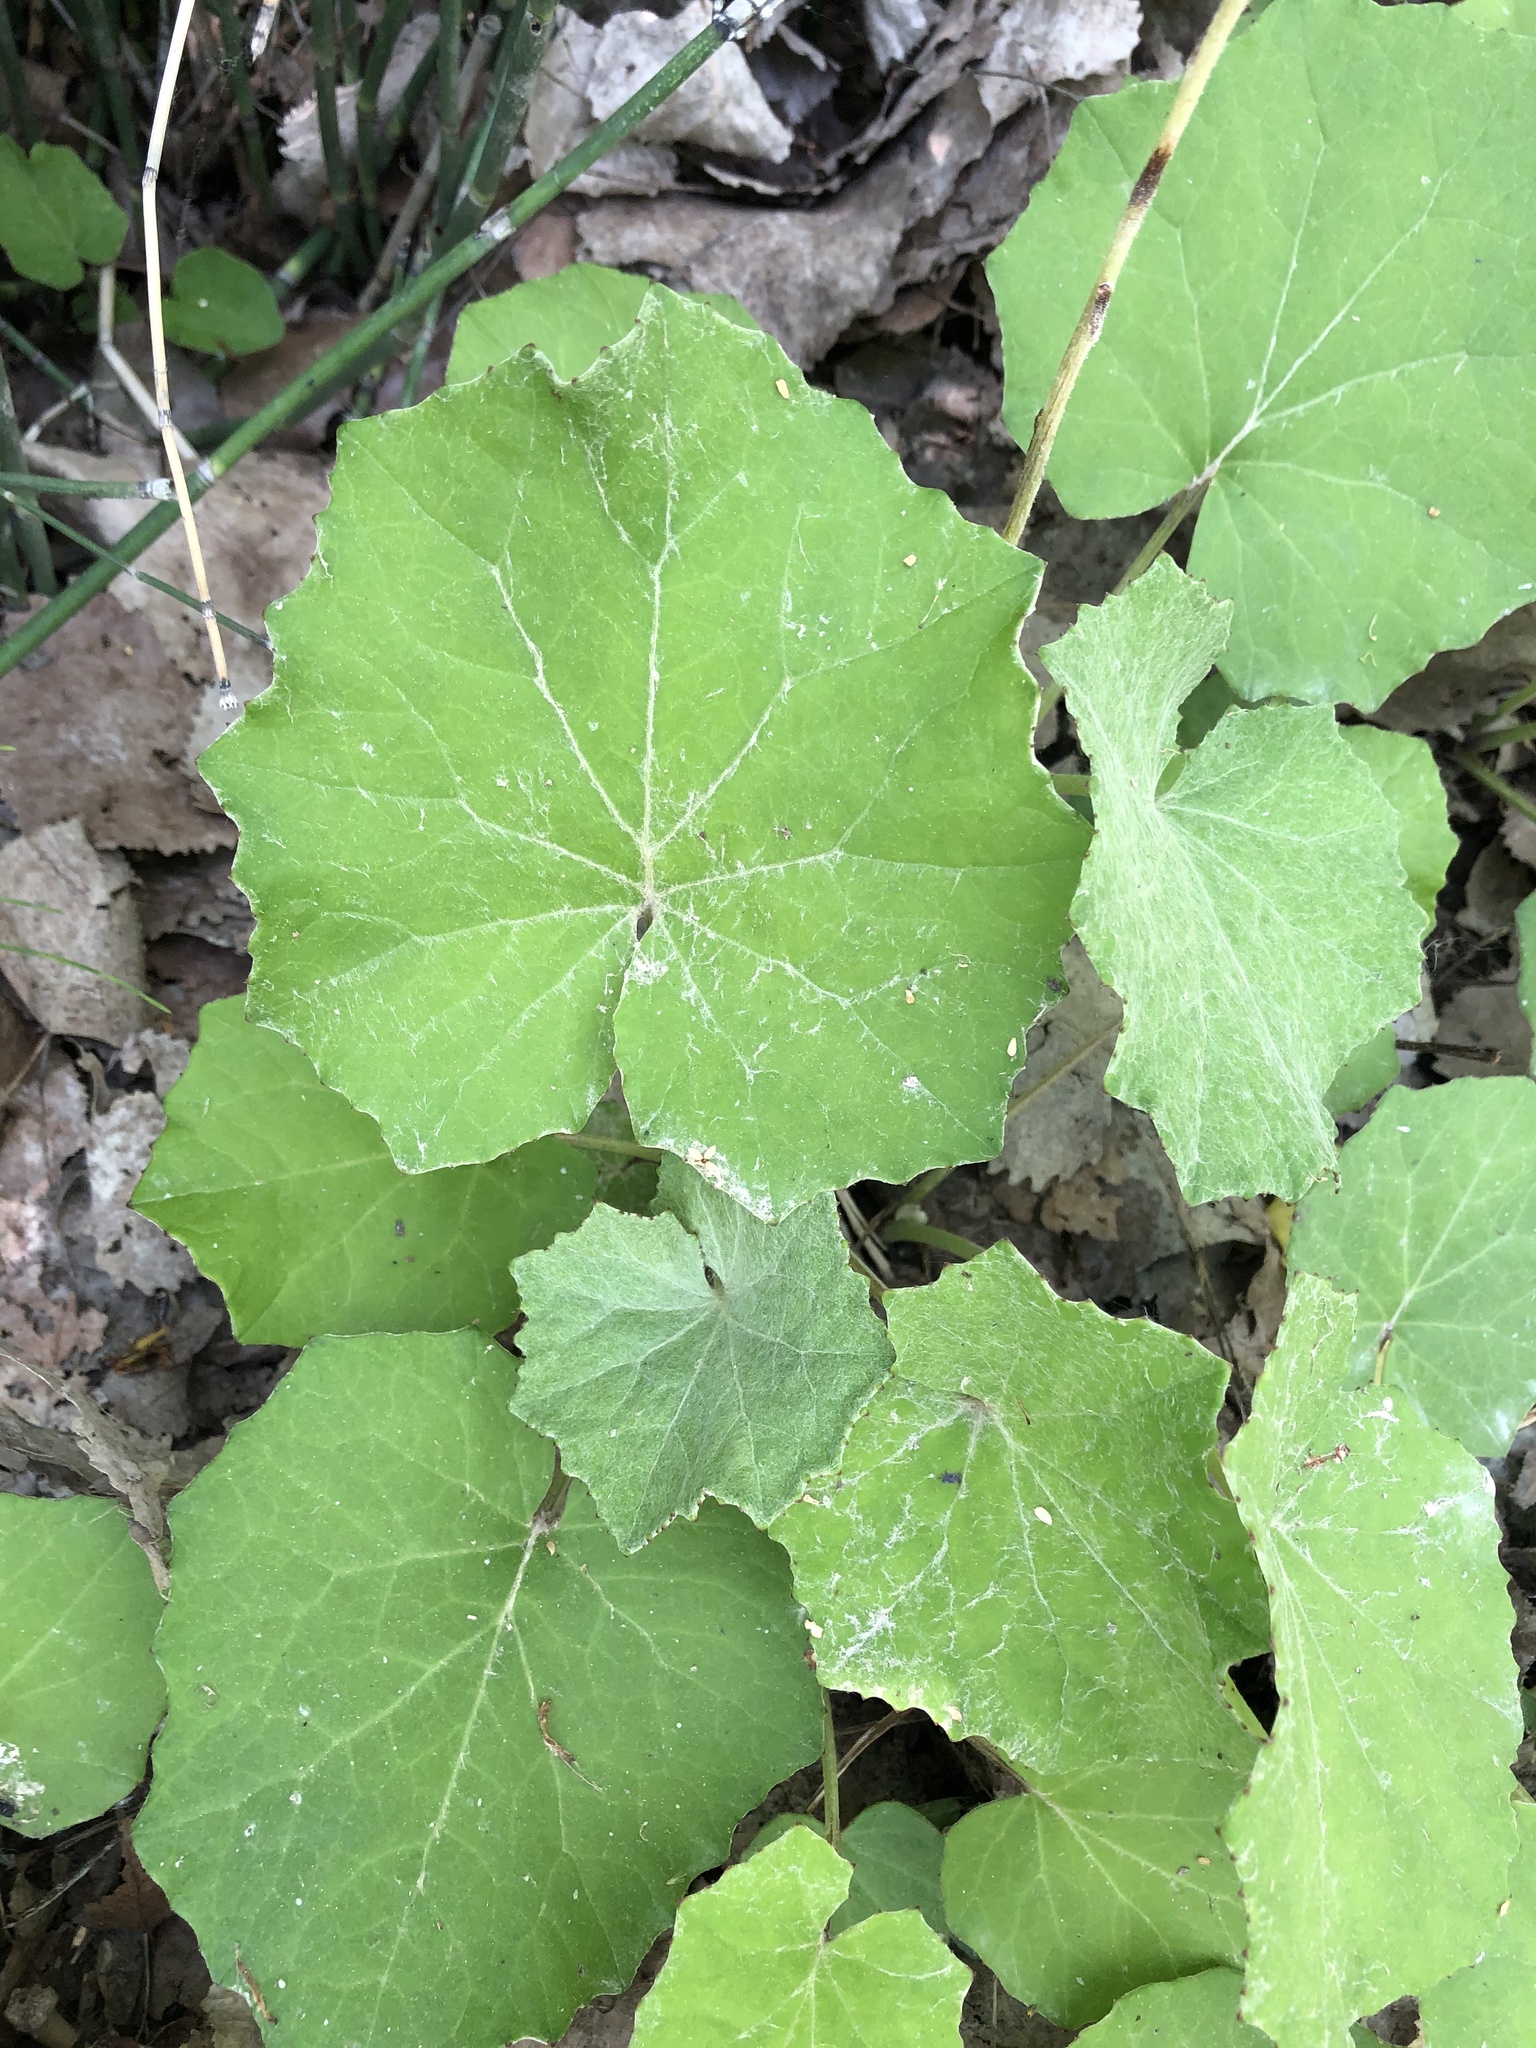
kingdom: Plantae
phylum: Tracheophyta
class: Magnoliopsida
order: Asterales
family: Asteraceae
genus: Tussilago
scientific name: Tussilago farfara
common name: Coltsfoot
